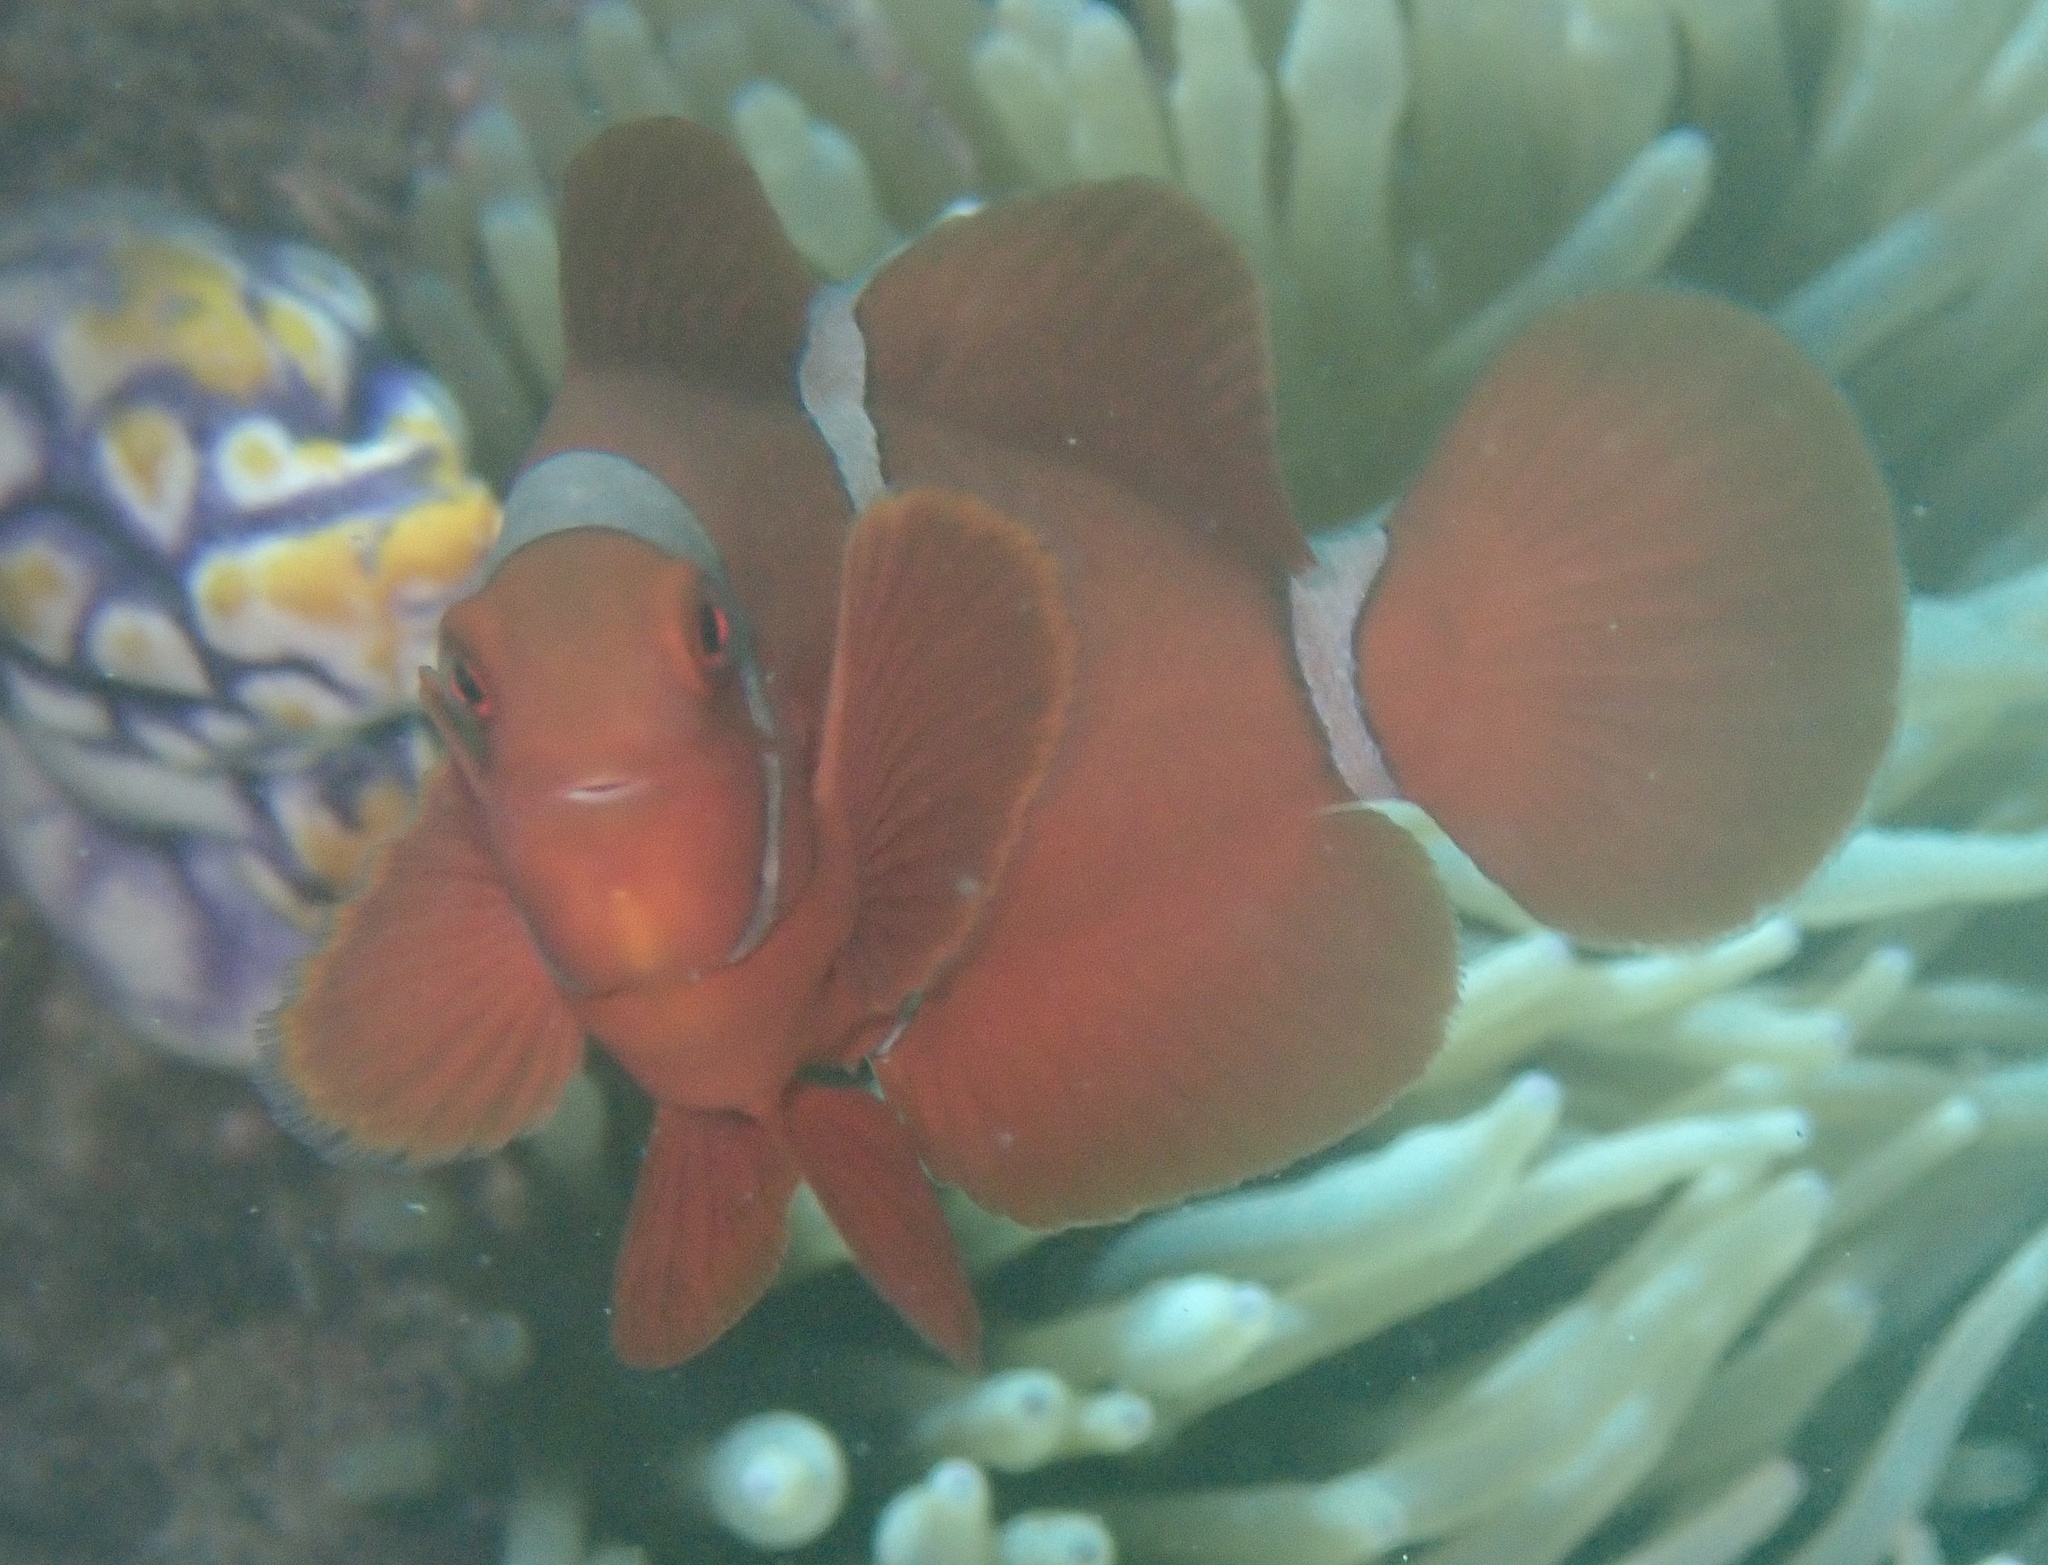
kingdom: Animalia
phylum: Chordata
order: Perciformes
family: Pomacentridae
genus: Premnas
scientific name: Premnas biaculeatus
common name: Spinecheek anemonefish
